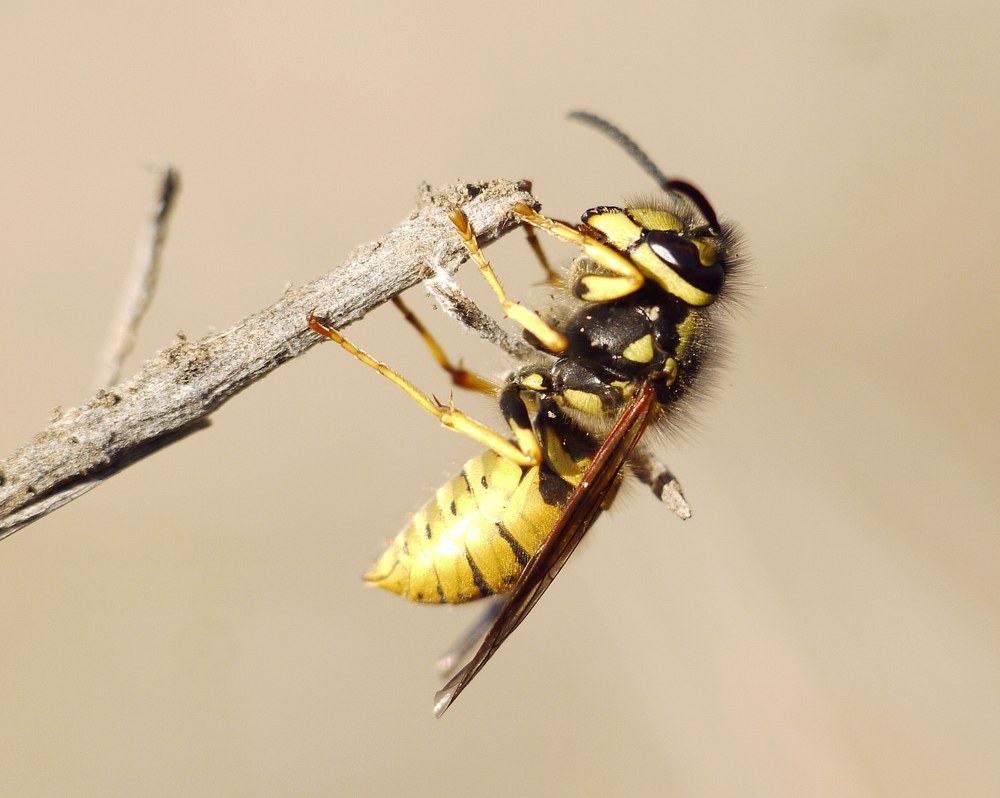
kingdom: Animalia
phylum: Arthropoda
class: Insecta
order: Hymenoptera
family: Vespidae
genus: Vespula
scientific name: Vespula germanica
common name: German wasp
